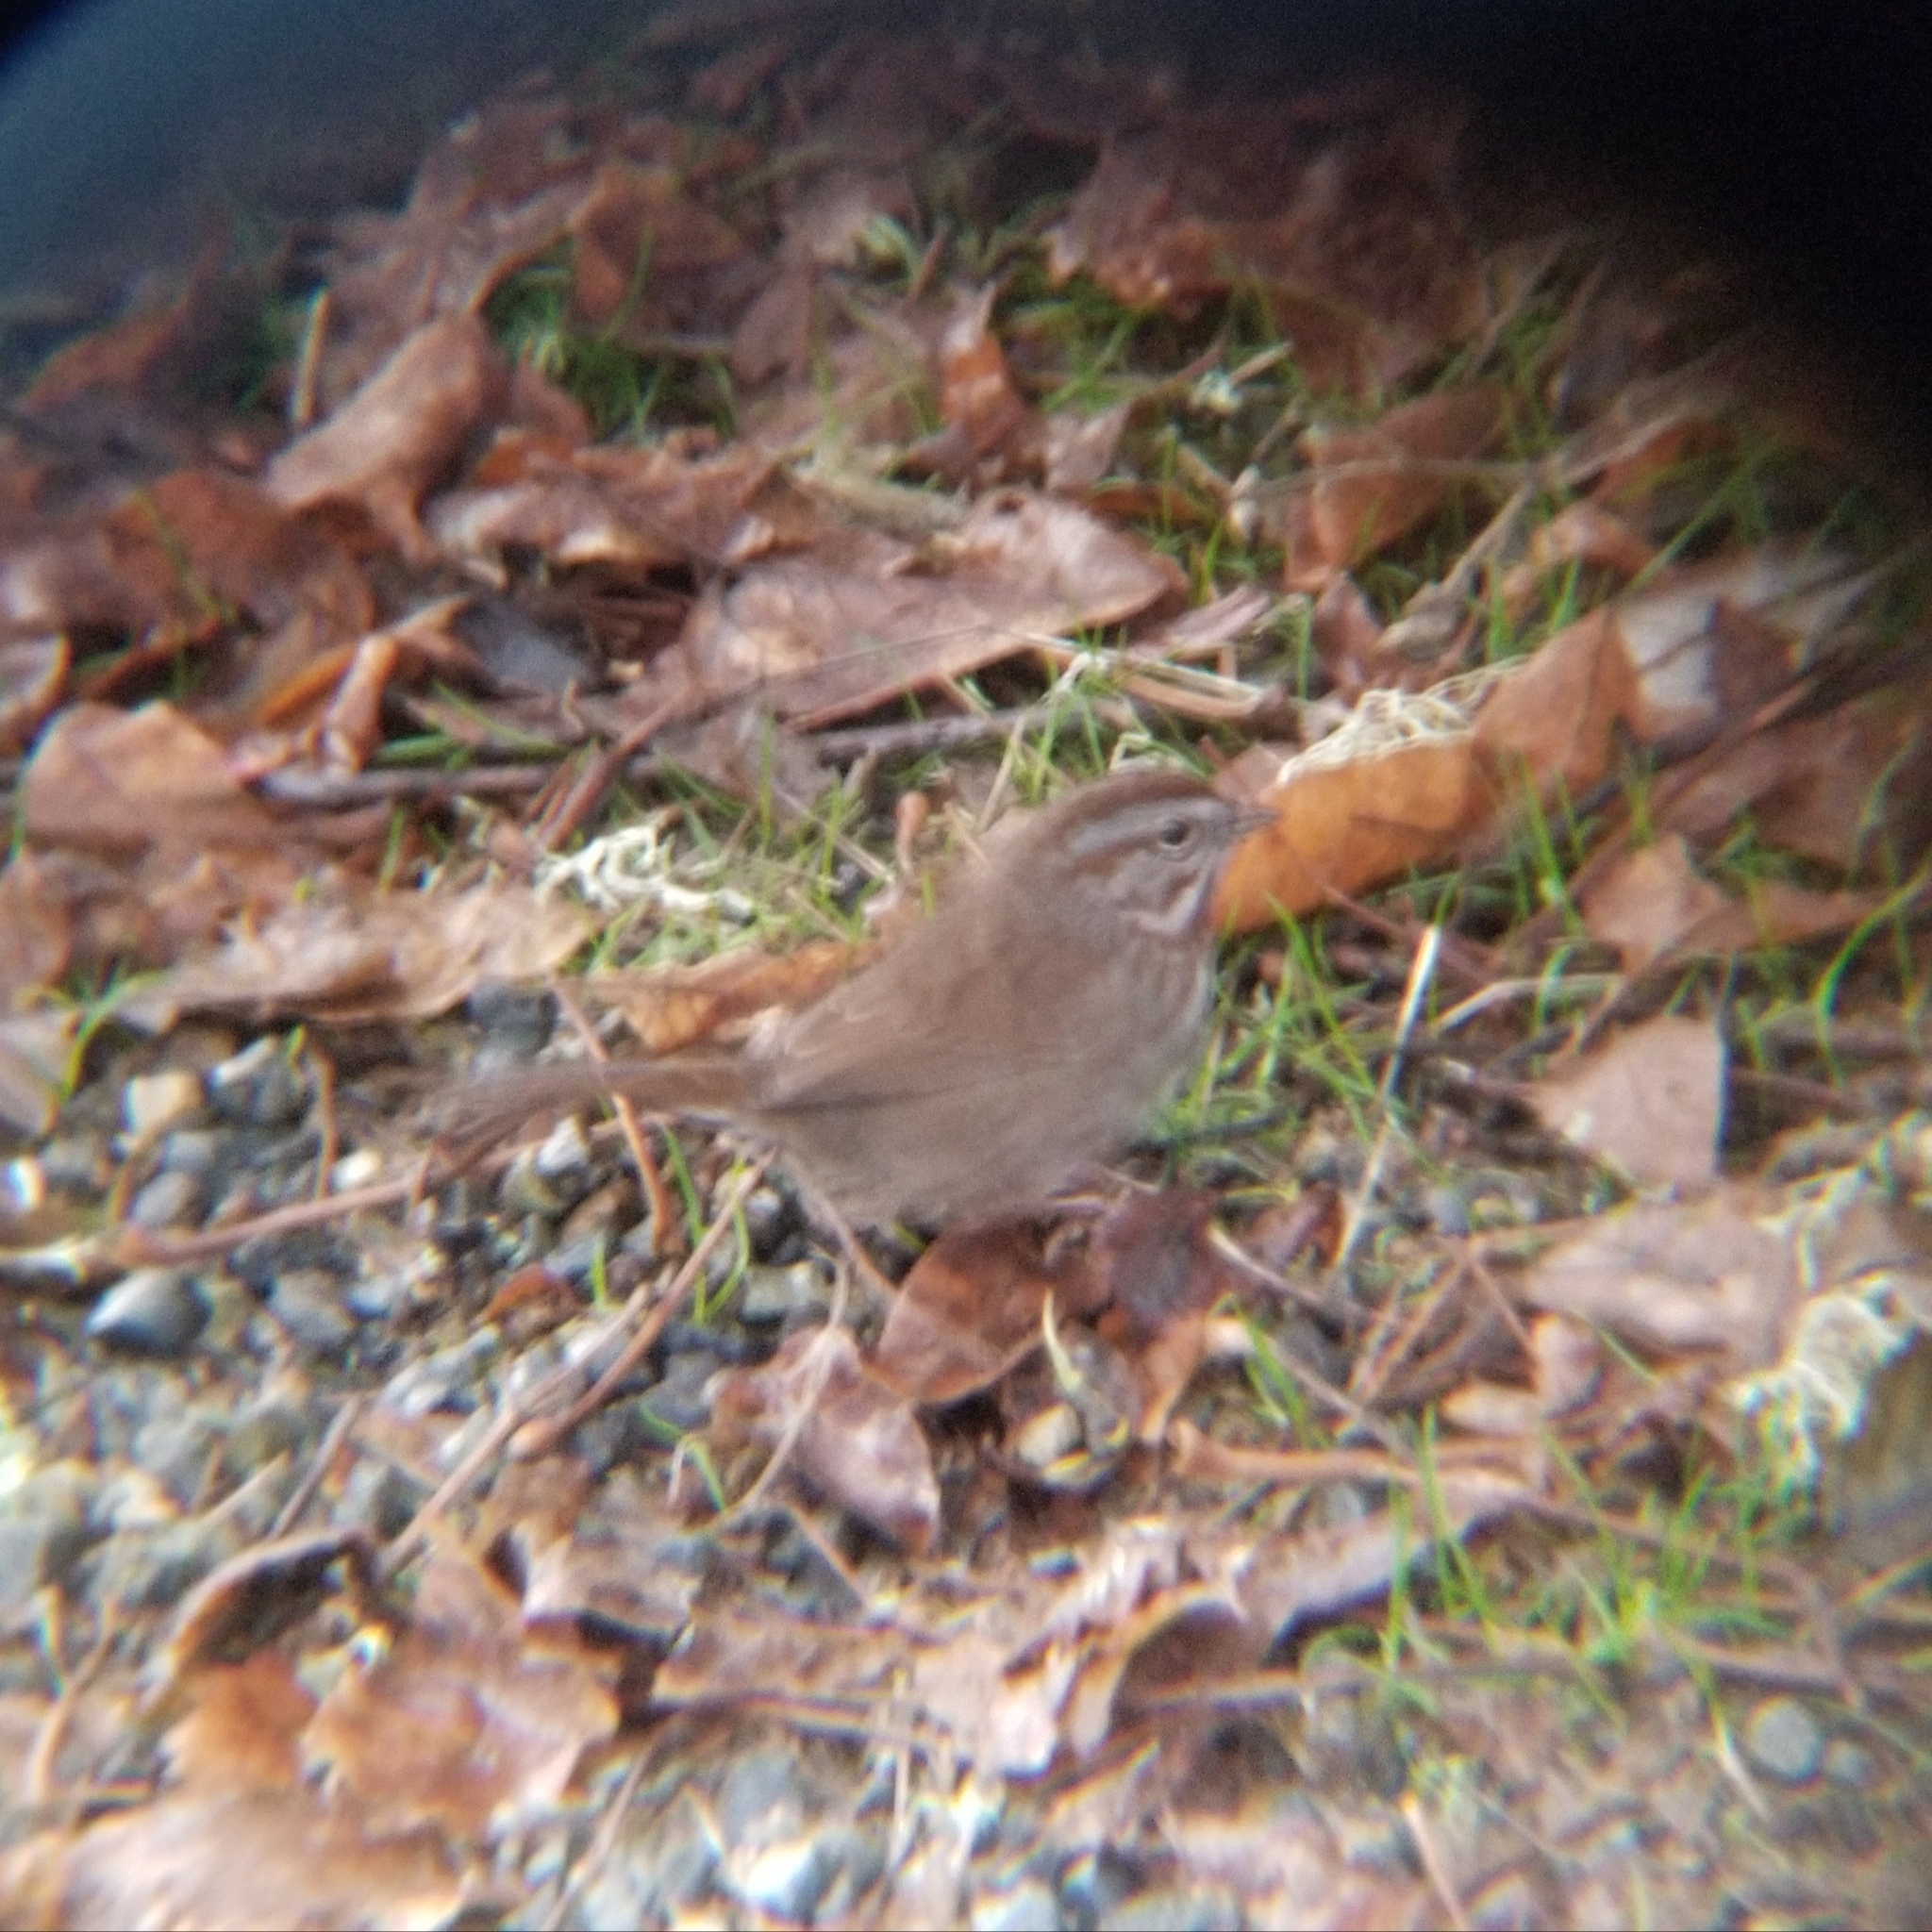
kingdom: Animalia
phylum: Chordata
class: Aves
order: Passeriformes
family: Passerellidae
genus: Melospiza
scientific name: Melospiza melodia
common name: Song sparrow
